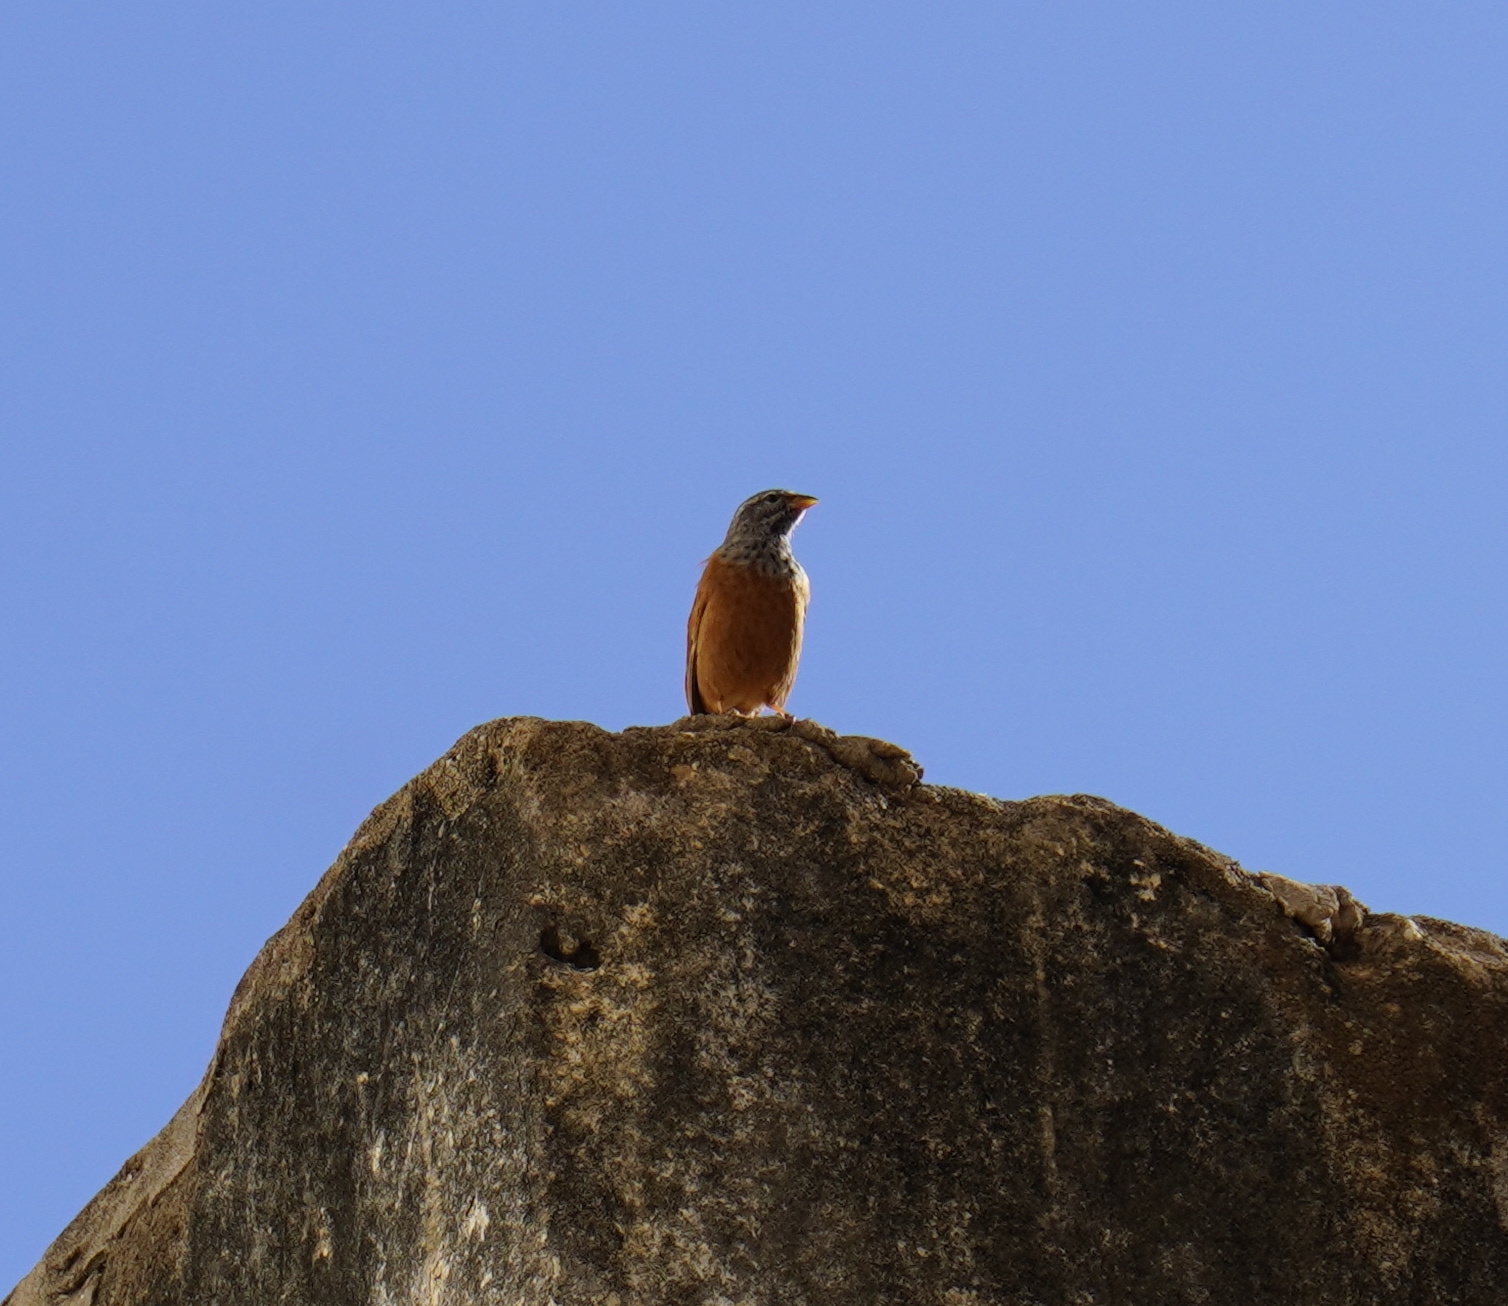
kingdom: Animalia
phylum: Chordata
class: Aves
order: Passeriformes
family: Emberizidae
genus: Emberiza
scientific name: Emberiza sahari
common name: House bunting
